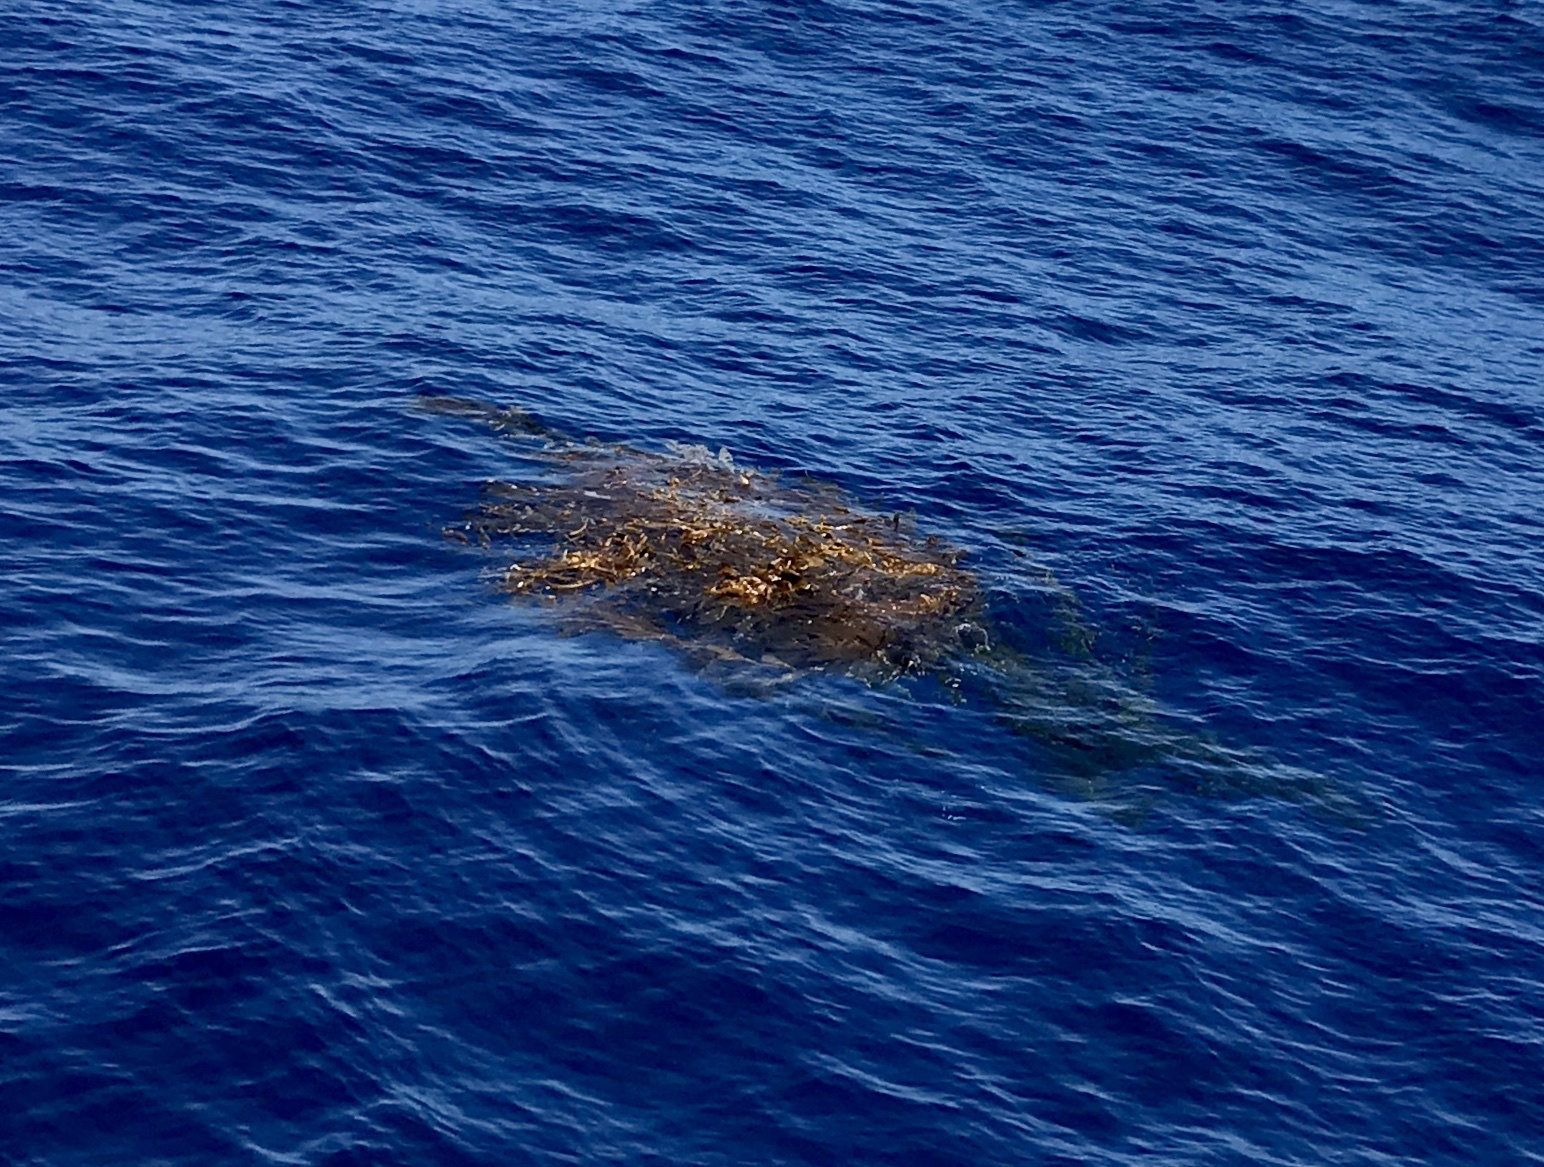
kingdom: Chromista
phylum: Ochrophyta
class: Phaeophyceae
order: Laminariales
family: Laminariaceae
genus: Macrocystis
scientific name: Macrocystis pyrifera
